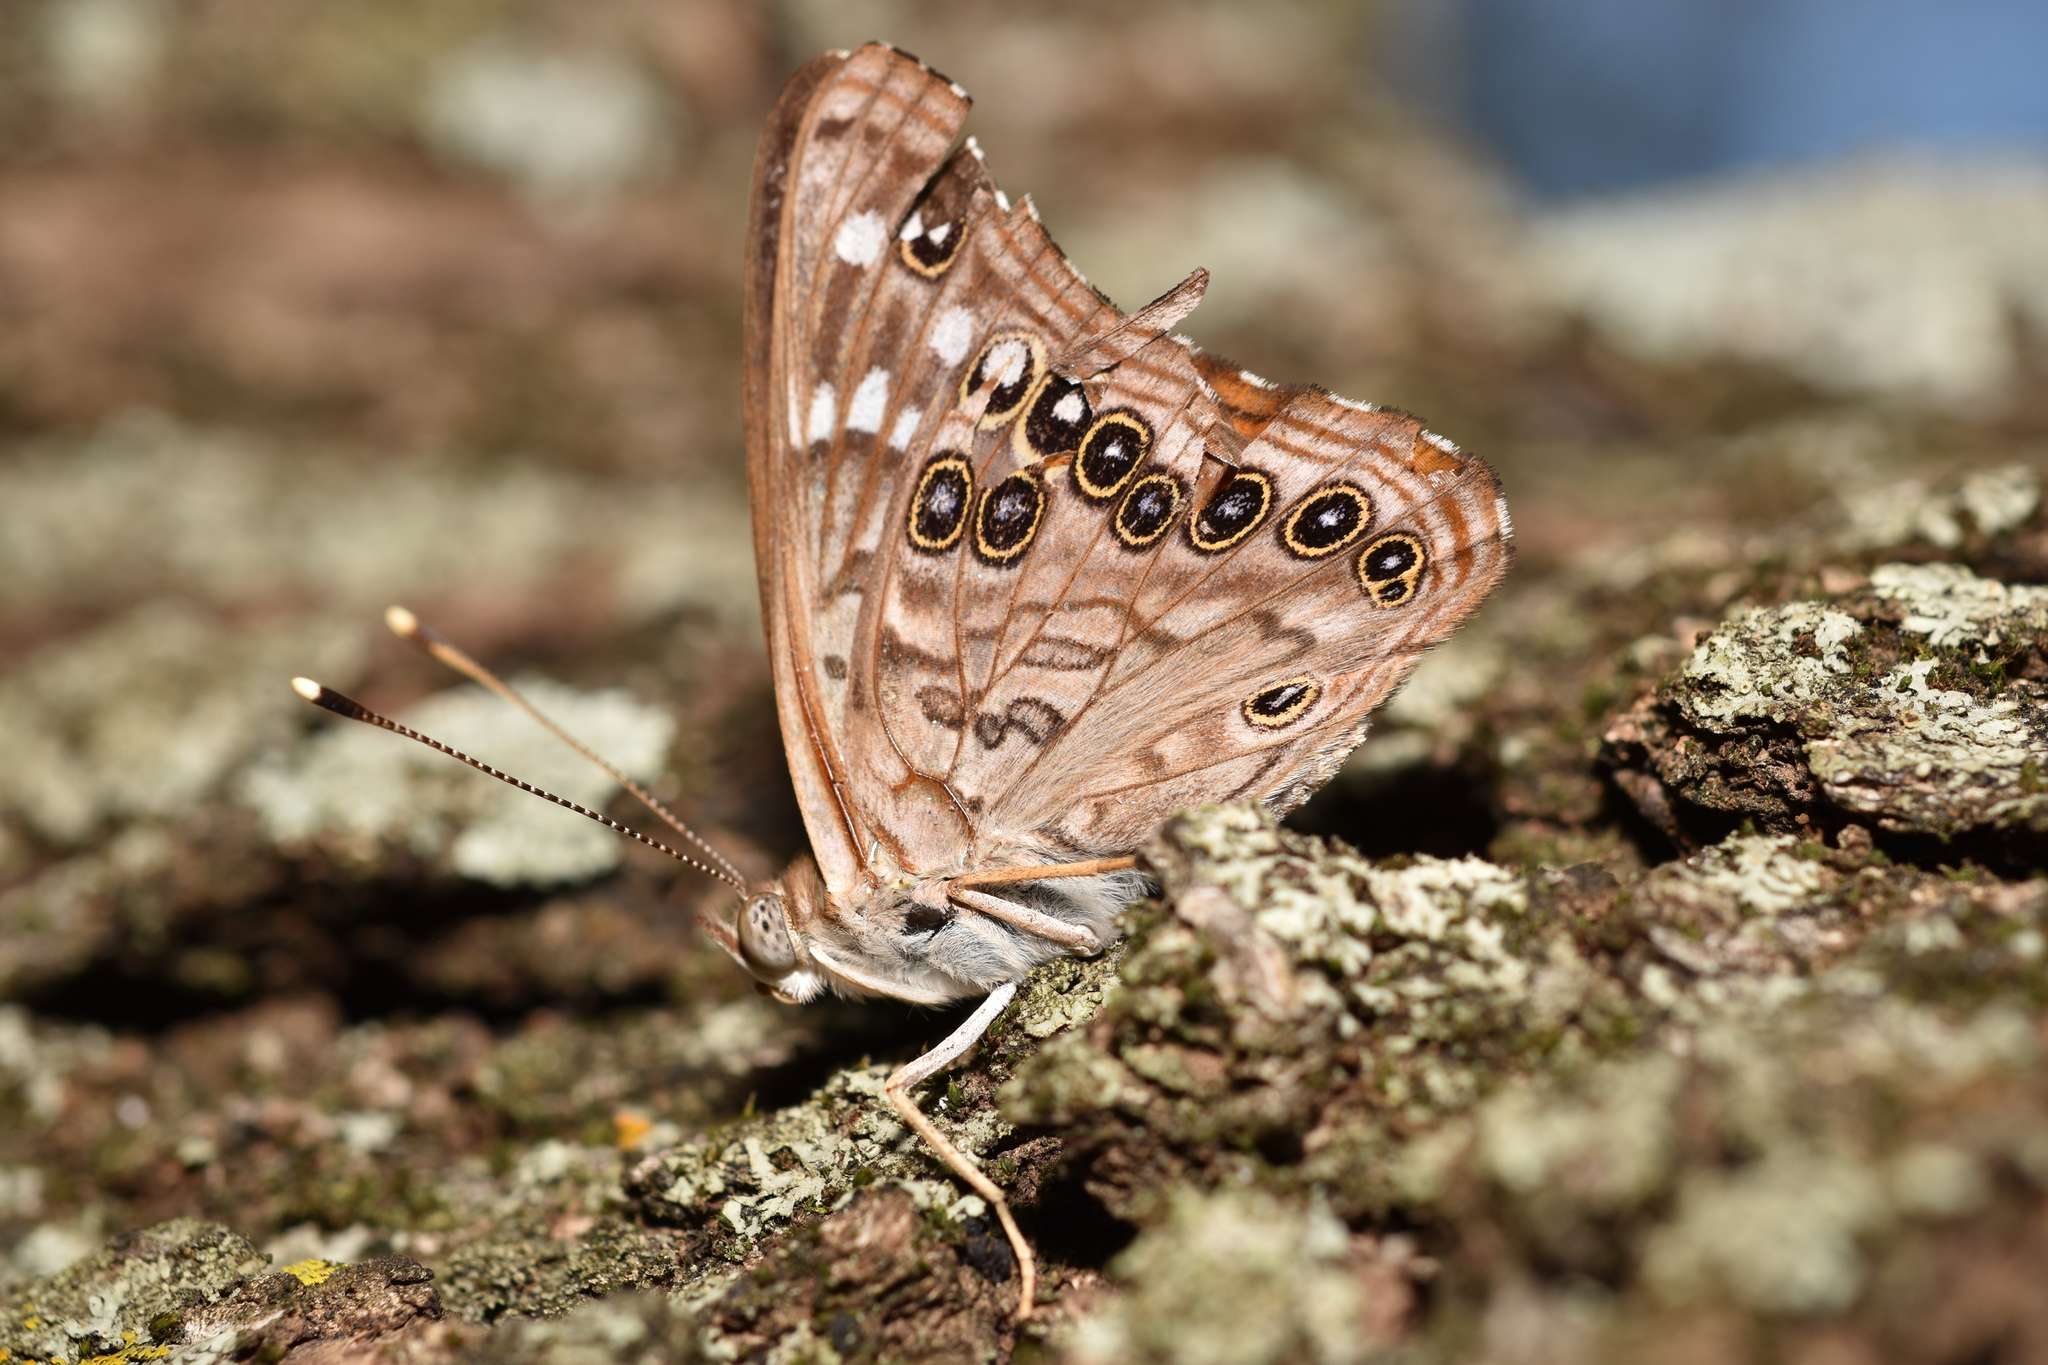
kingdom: Animalia
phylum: Arthropoda
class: Insecta
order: Lepidoptera
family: Nymphalidae
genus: Asterocampa
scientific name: Asterocampa celtis
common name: Hackberry emperor
